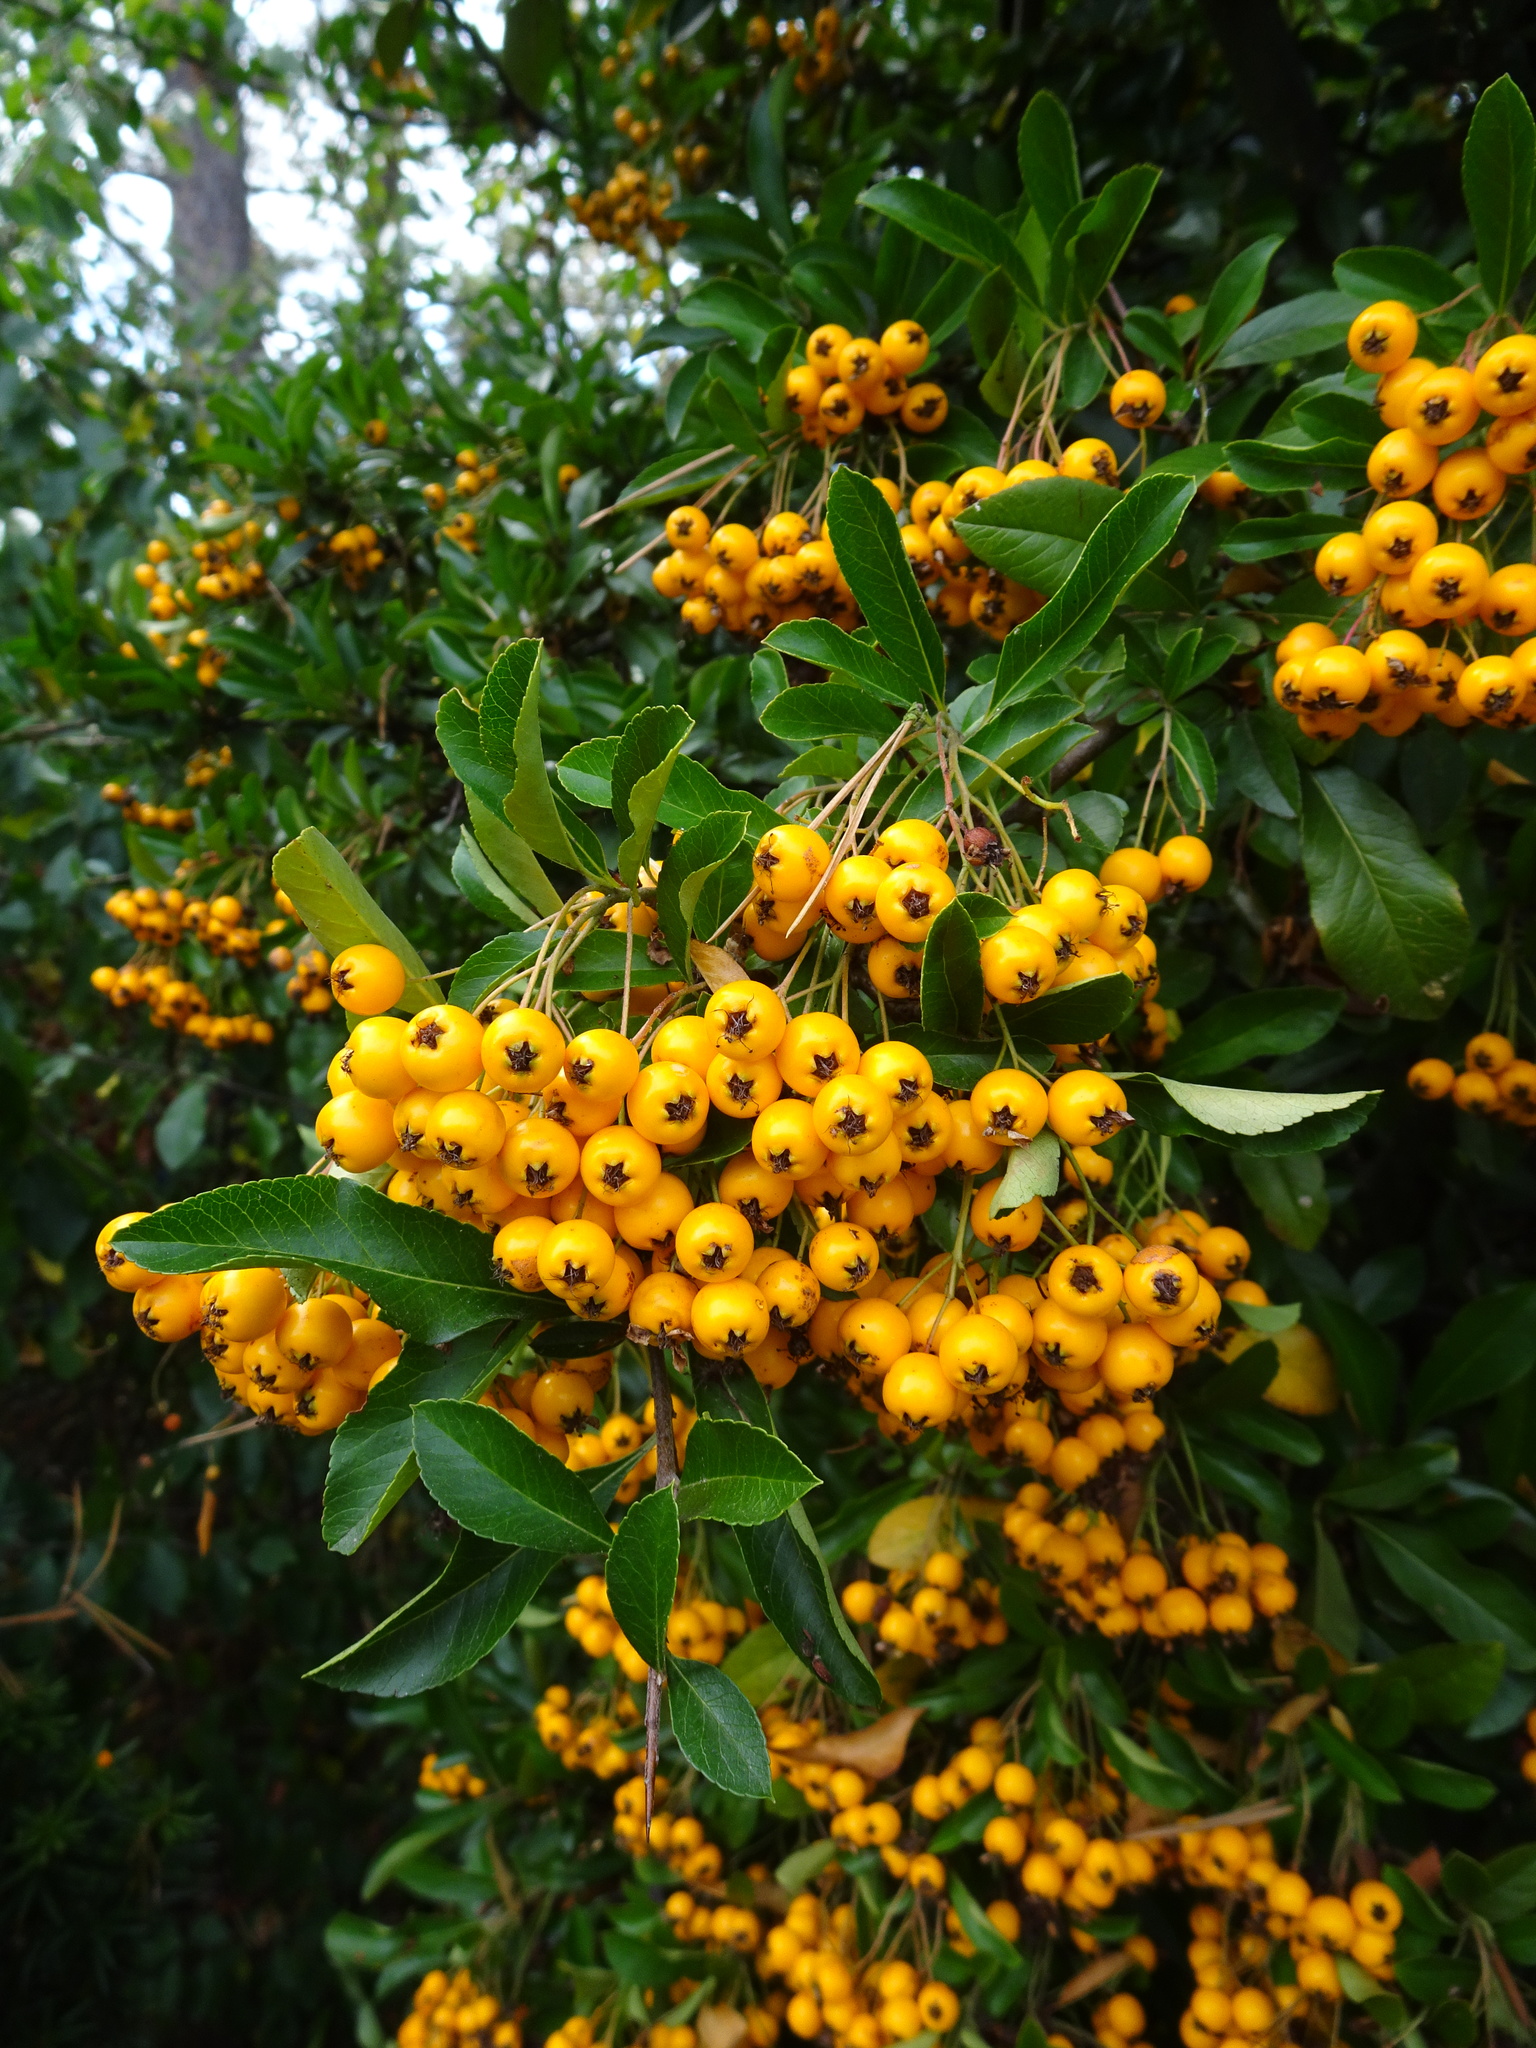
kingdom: Plantae
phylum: Tracheophyta
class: Magnoliopsida
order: Rosales
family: Rosaceae
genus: Pyracantha
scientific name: Pyracantha coccinea
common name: Firethorn
